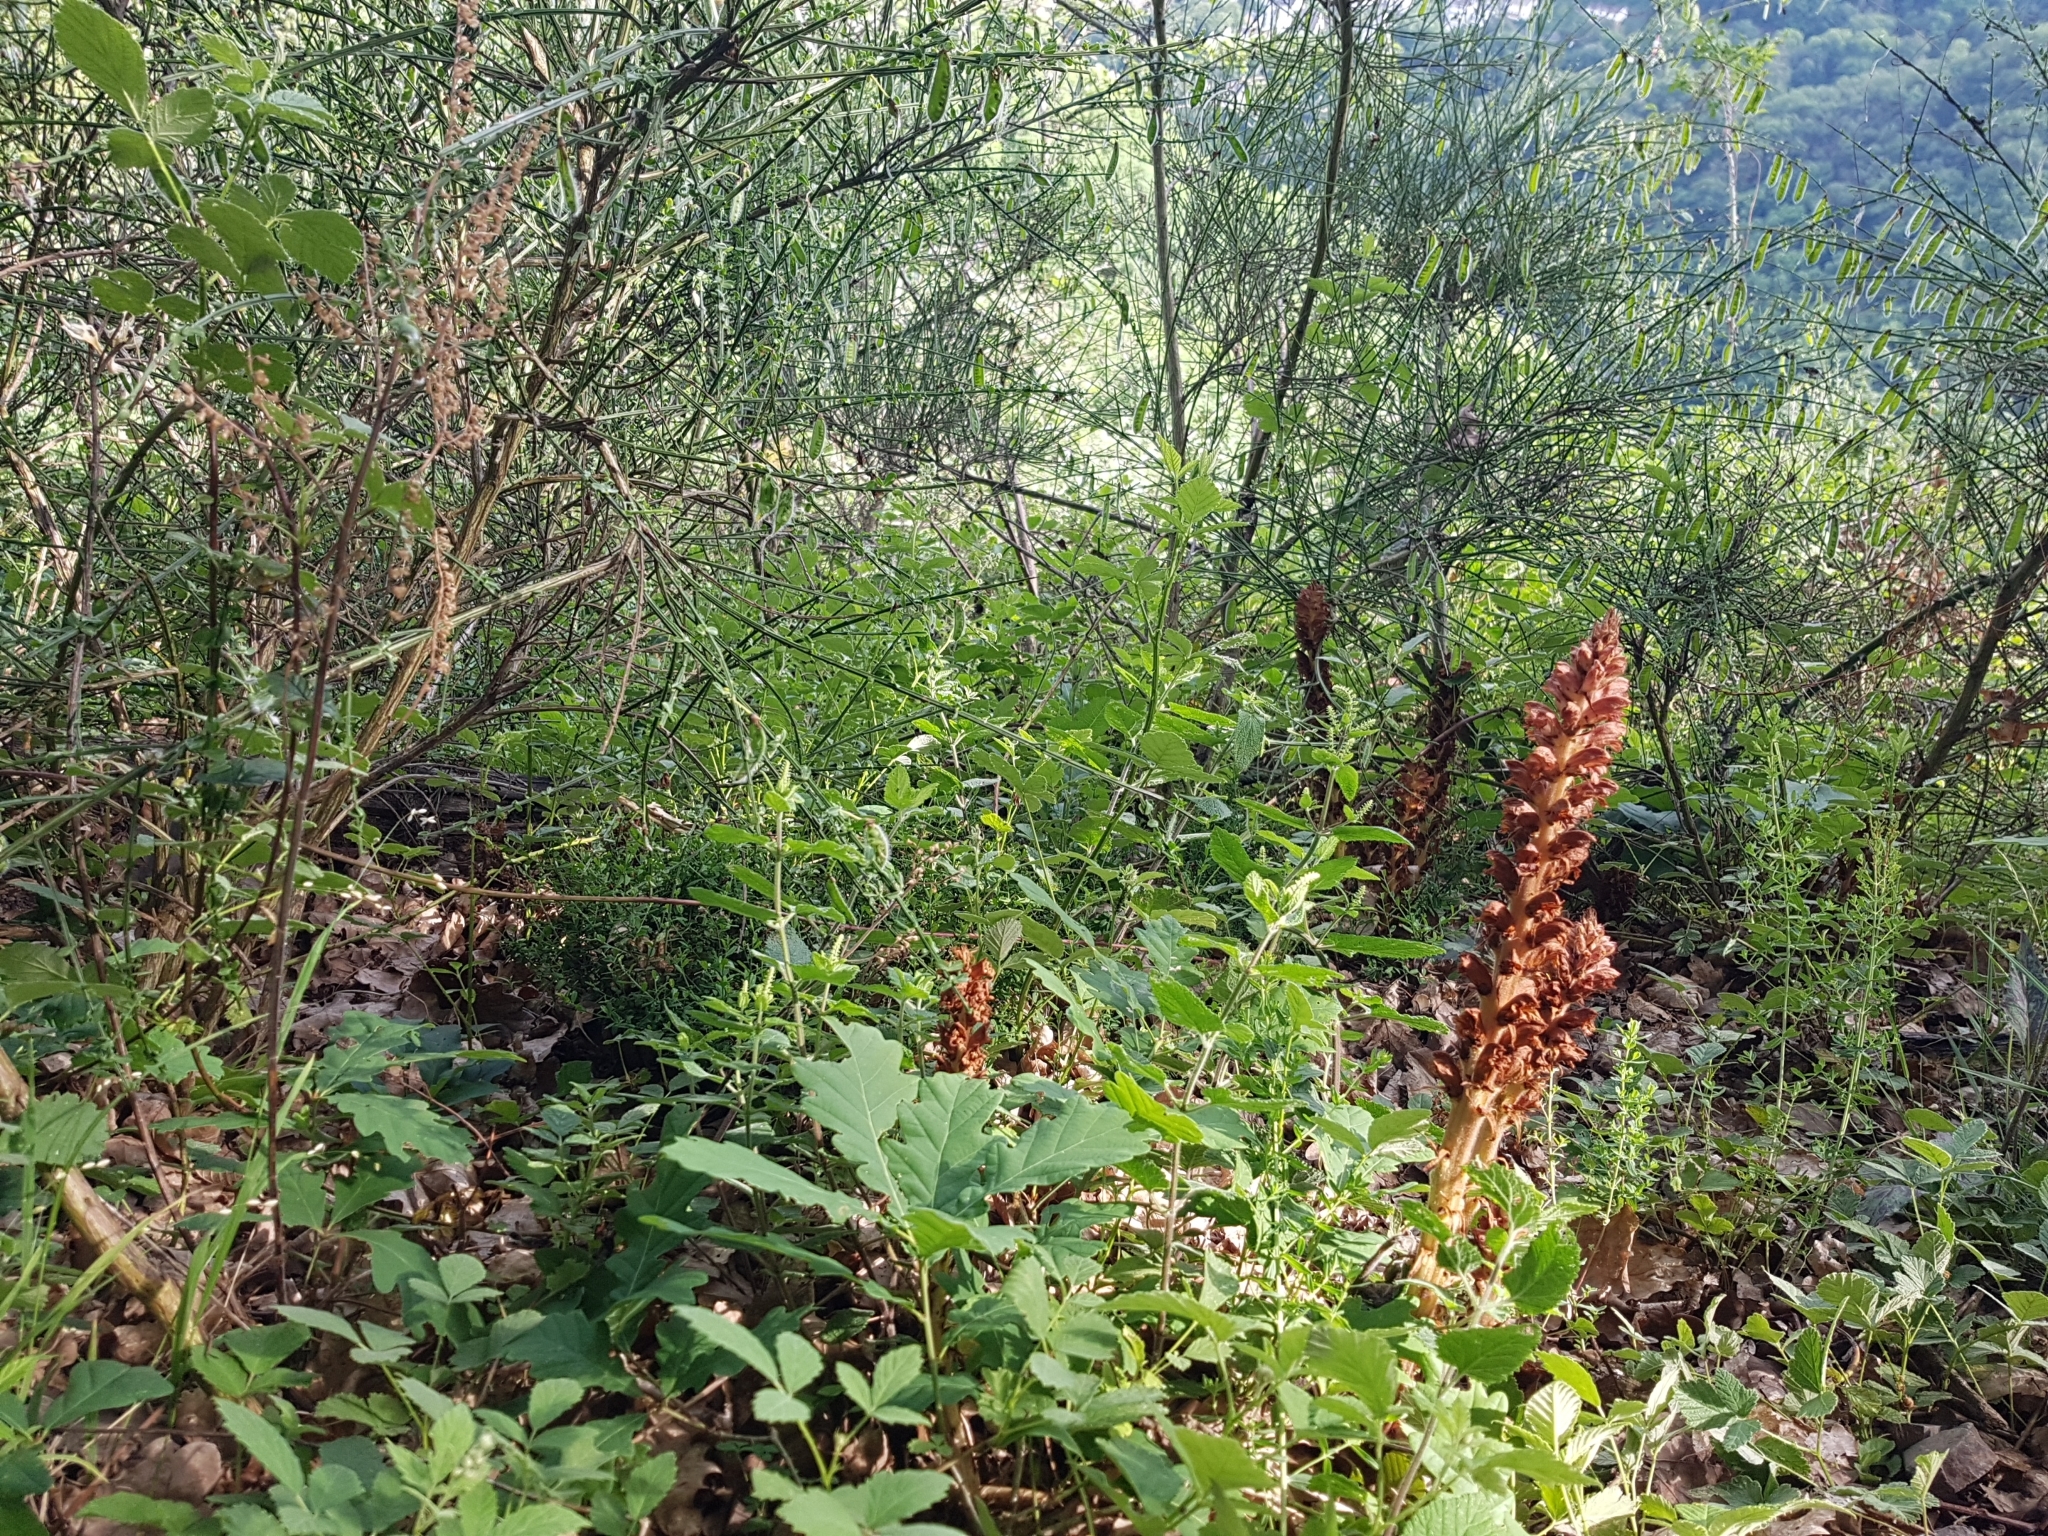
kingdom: Plantae
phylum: Tracheophyta
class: Magnoliopsida
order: Lamiales
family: Orobanchaceae
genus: Orobanche
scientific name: Orobanche rapum-genistae
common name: Greater broomrape
